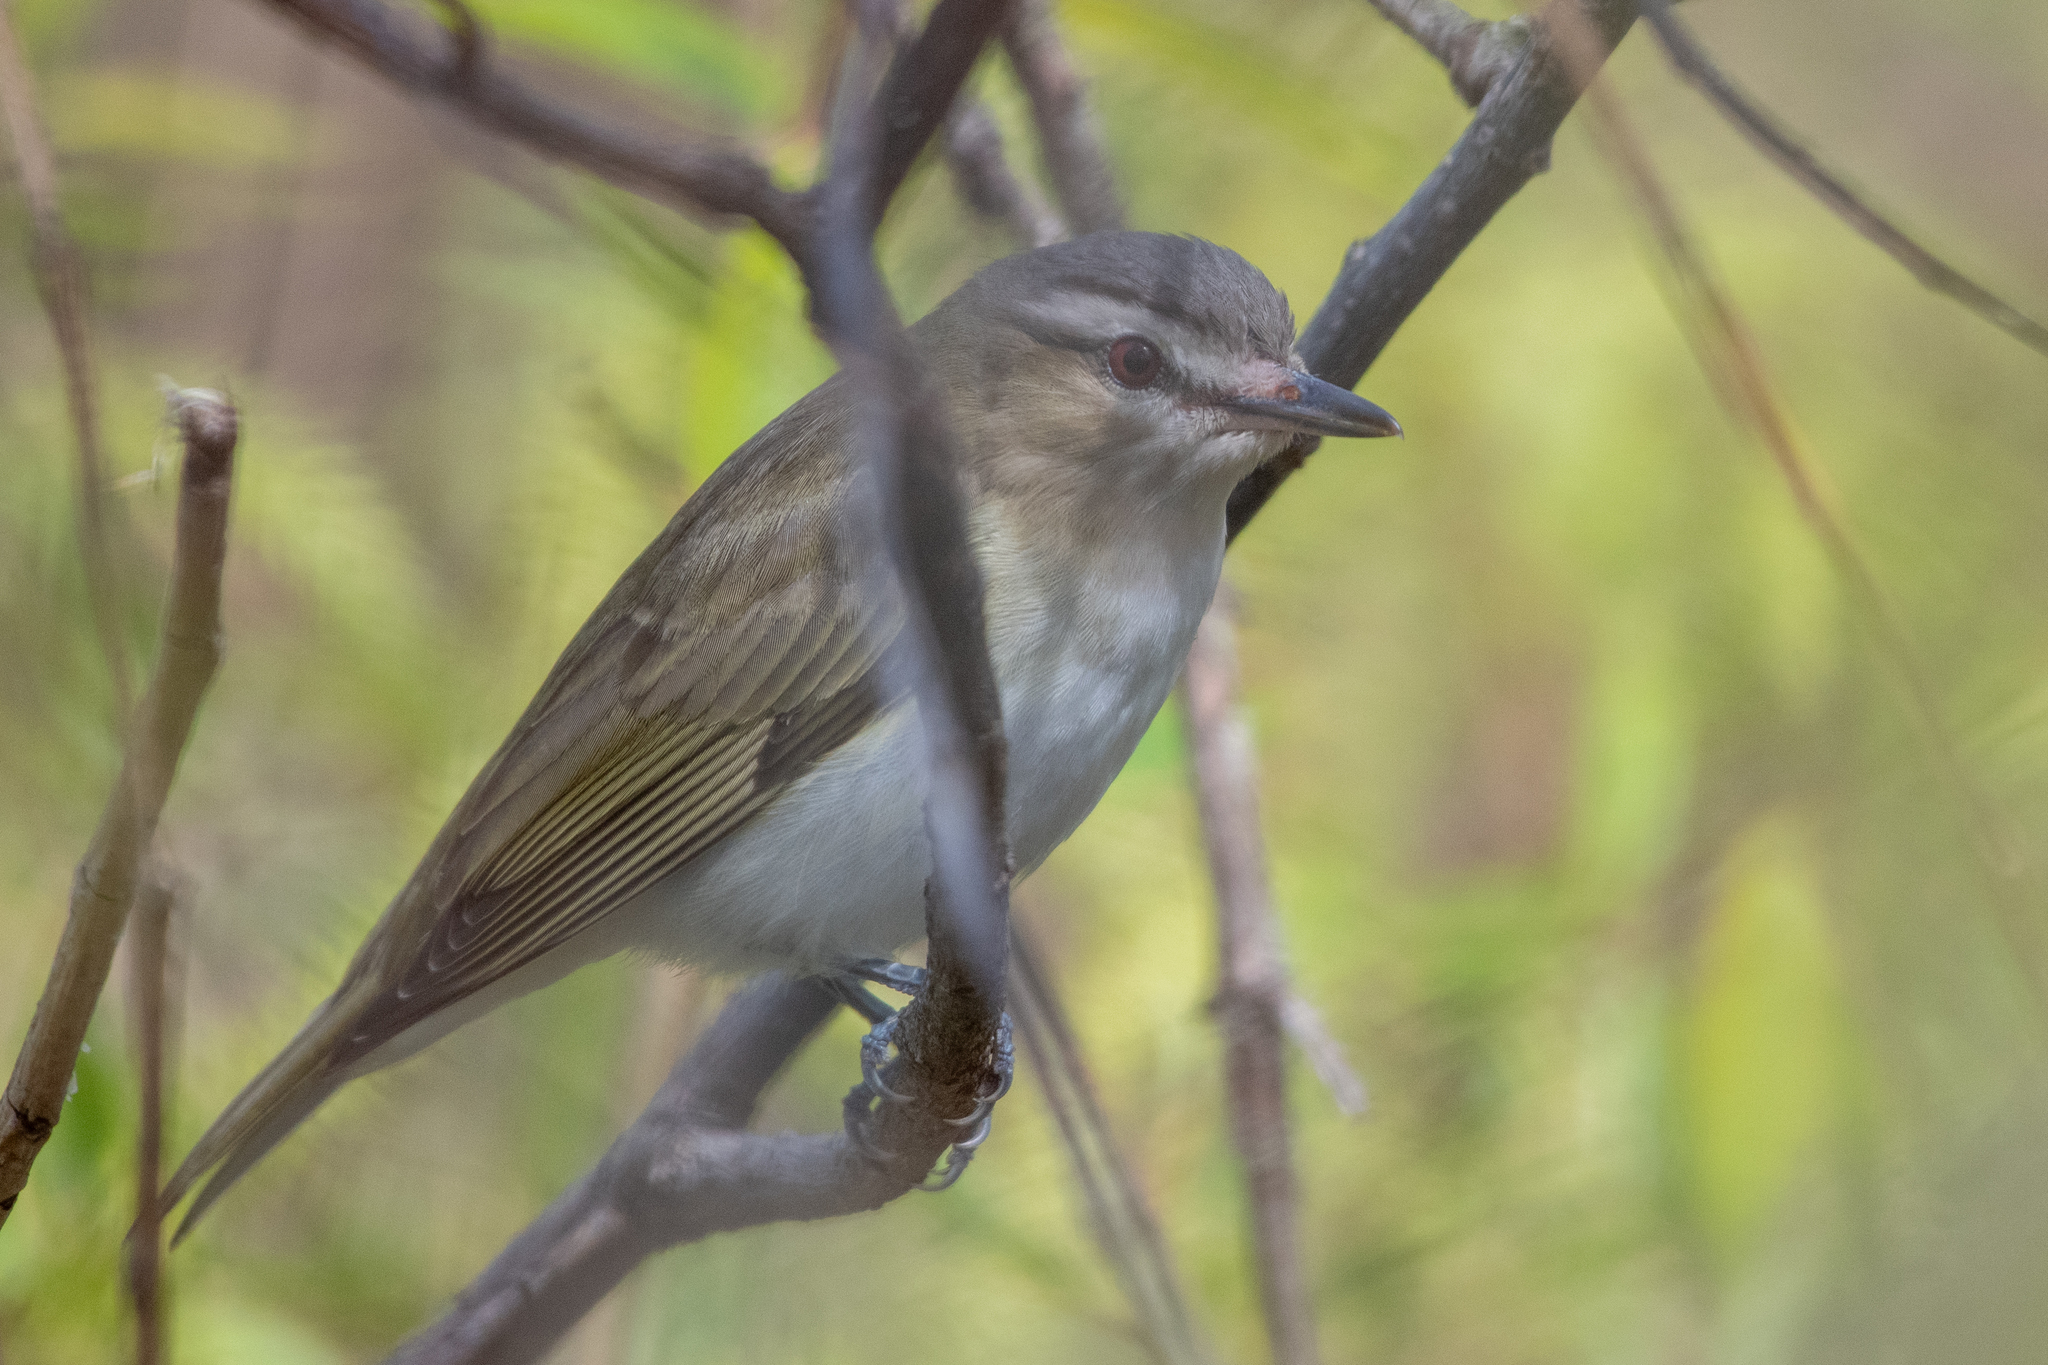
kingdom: Animalia
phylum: Chordata
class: Aves
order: Passeriformes
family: Vireonidae
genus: Vireo
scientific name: Vireo olivaceus
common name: Red-eyed vireo
